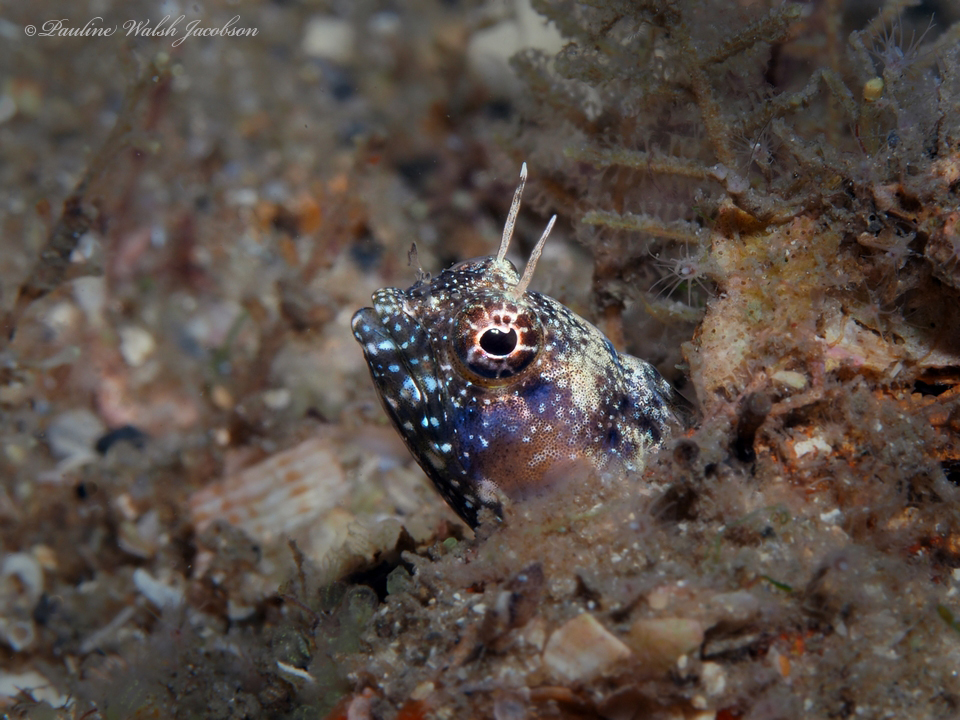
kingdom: Animalia
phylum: Chordata
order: Perciformes
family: Chaenopsidae
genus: Emblemaria
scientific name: Emblemaria pandionis
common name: Sailfin blenny
